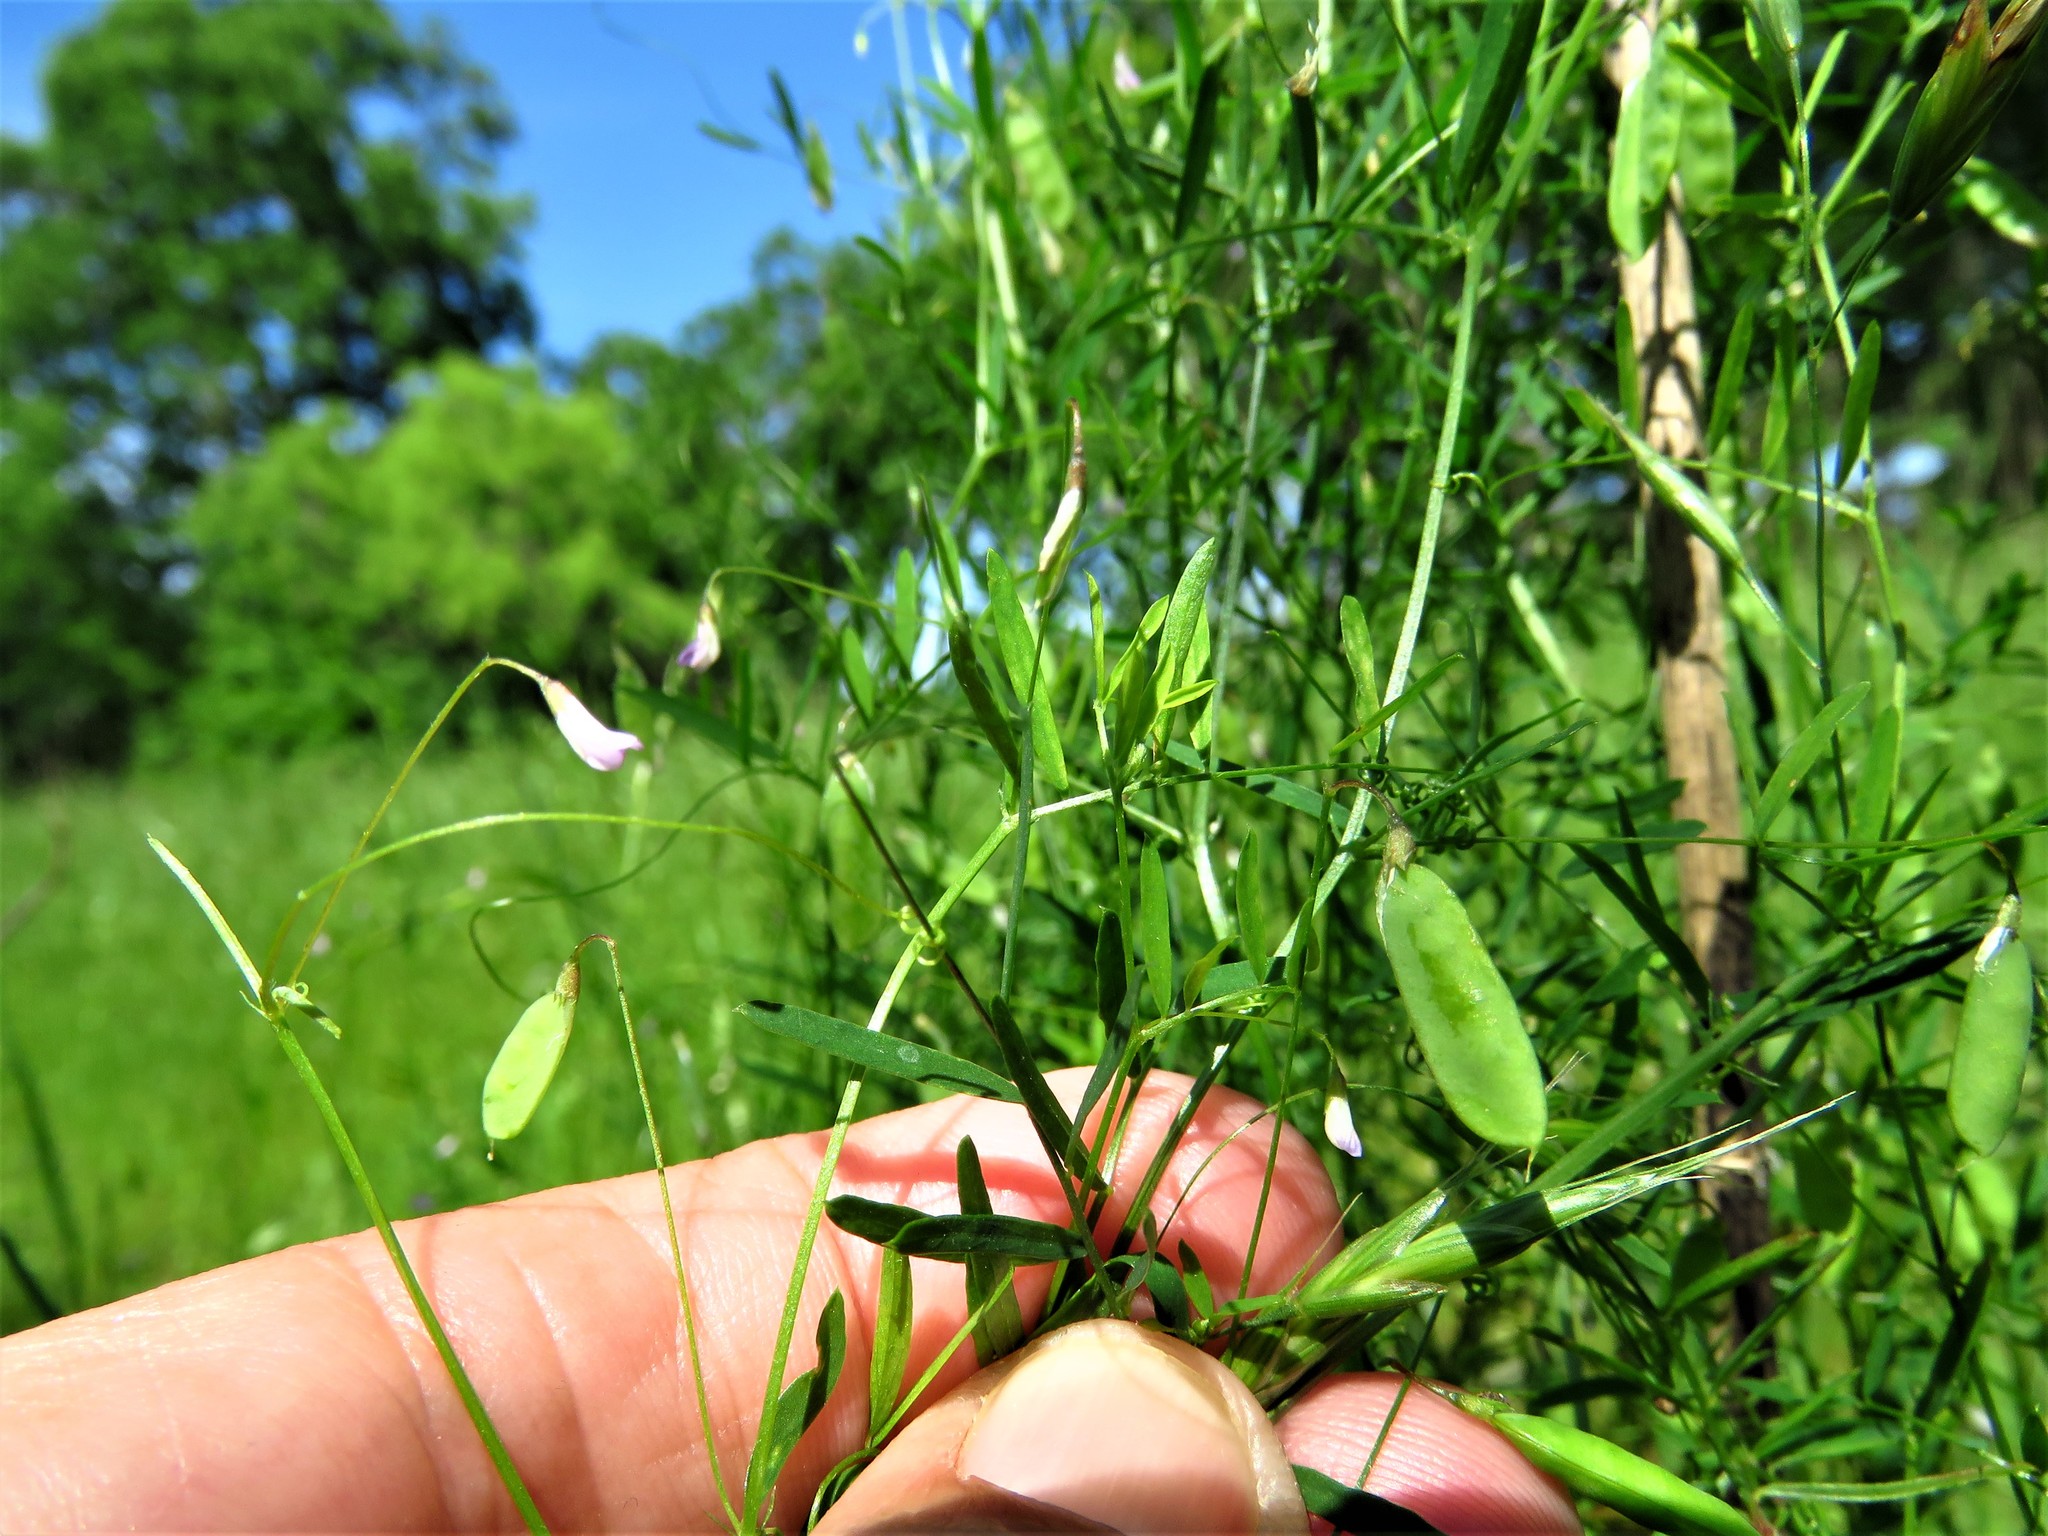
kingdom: Plantae
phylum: Tracheophyta
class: Magnoliopsida
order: Fabales
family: Fabaceae
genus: Vicia
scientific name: Vicia tetrasperma
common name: Smooth tare
